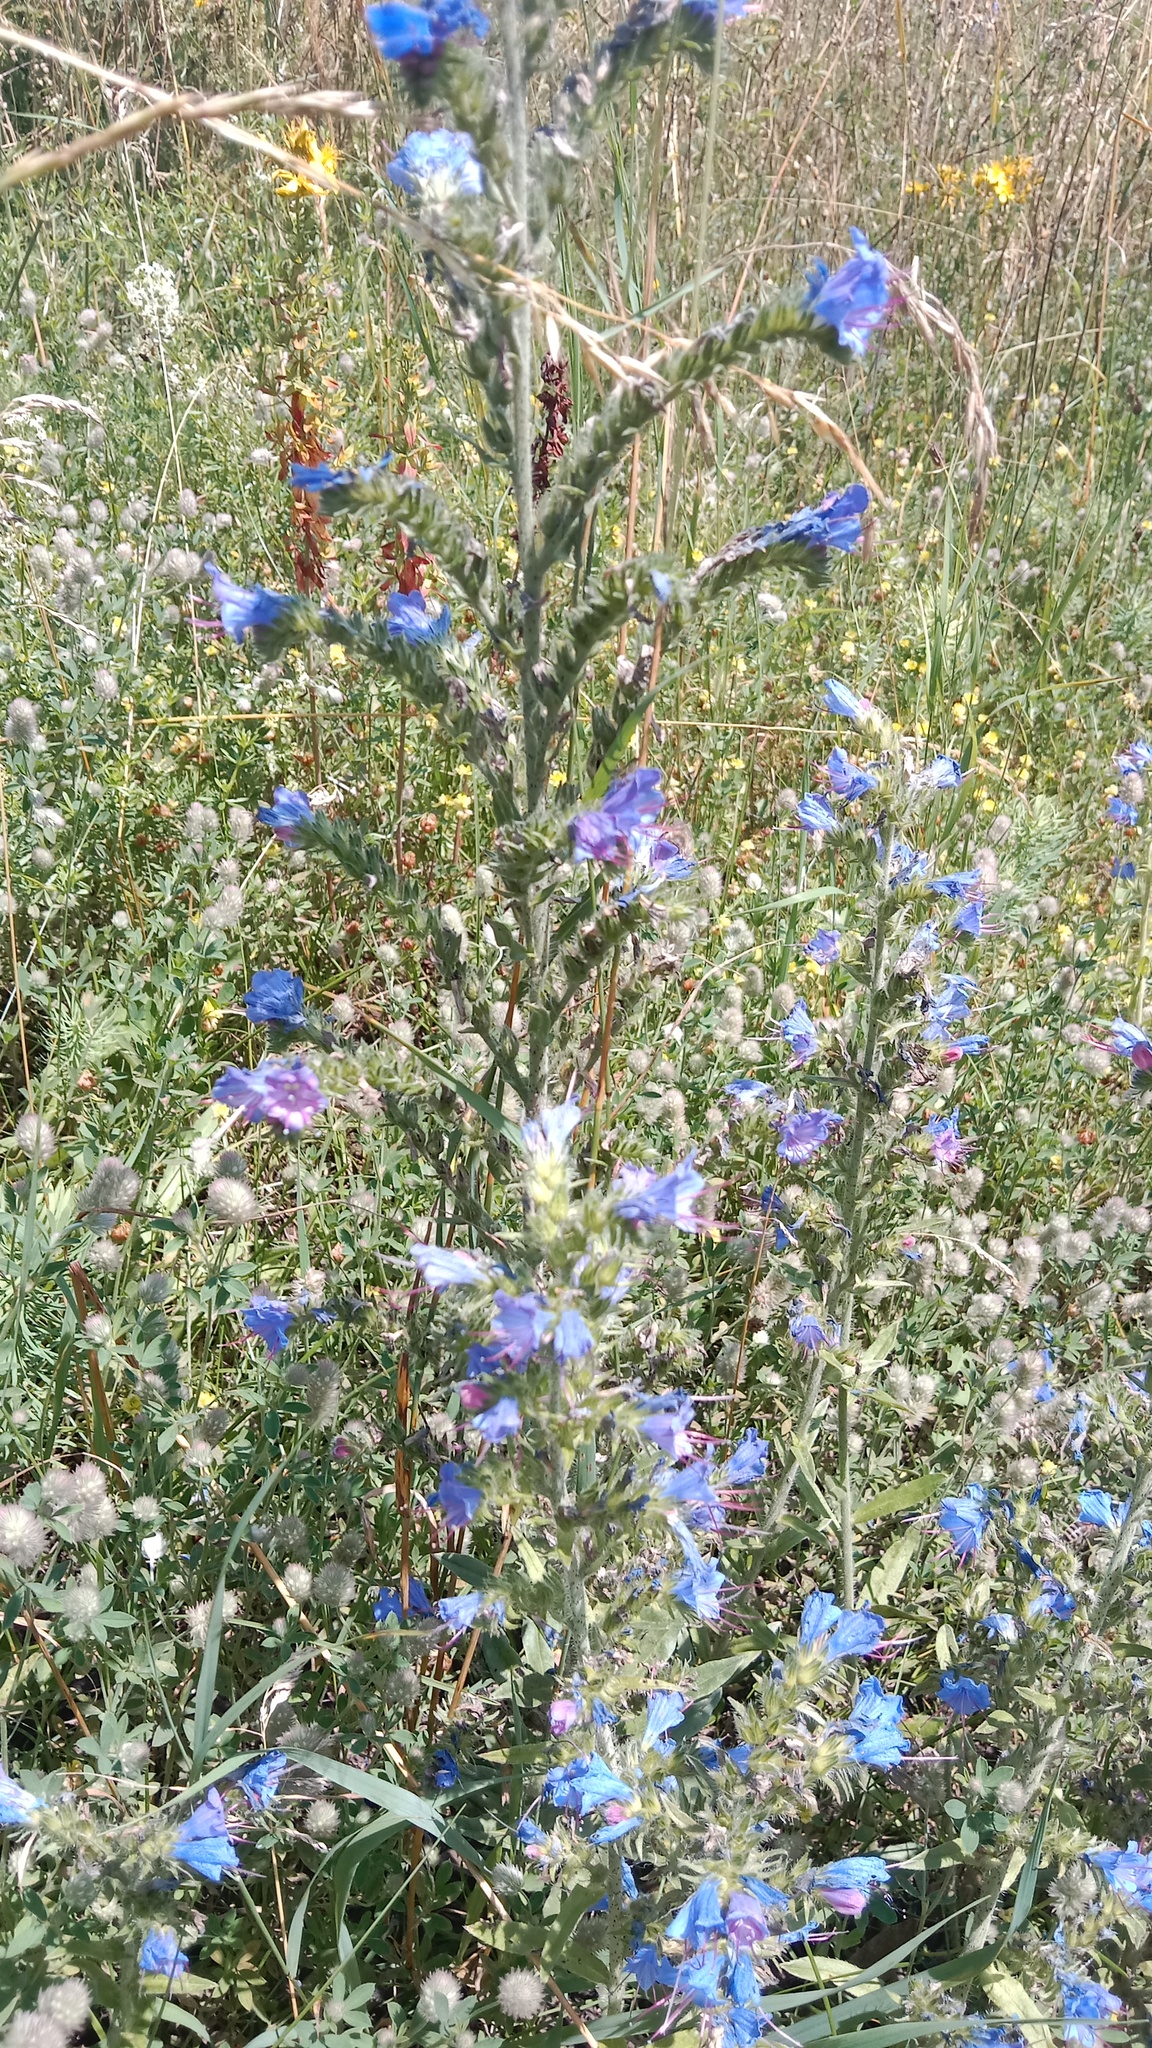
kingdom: Plantae
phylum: Tracheophyta
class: Magnoliopsida
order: Boraginales
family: Boraginaceae
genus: Echium
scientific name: Echium vulgare
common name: Common viper's bugloss
